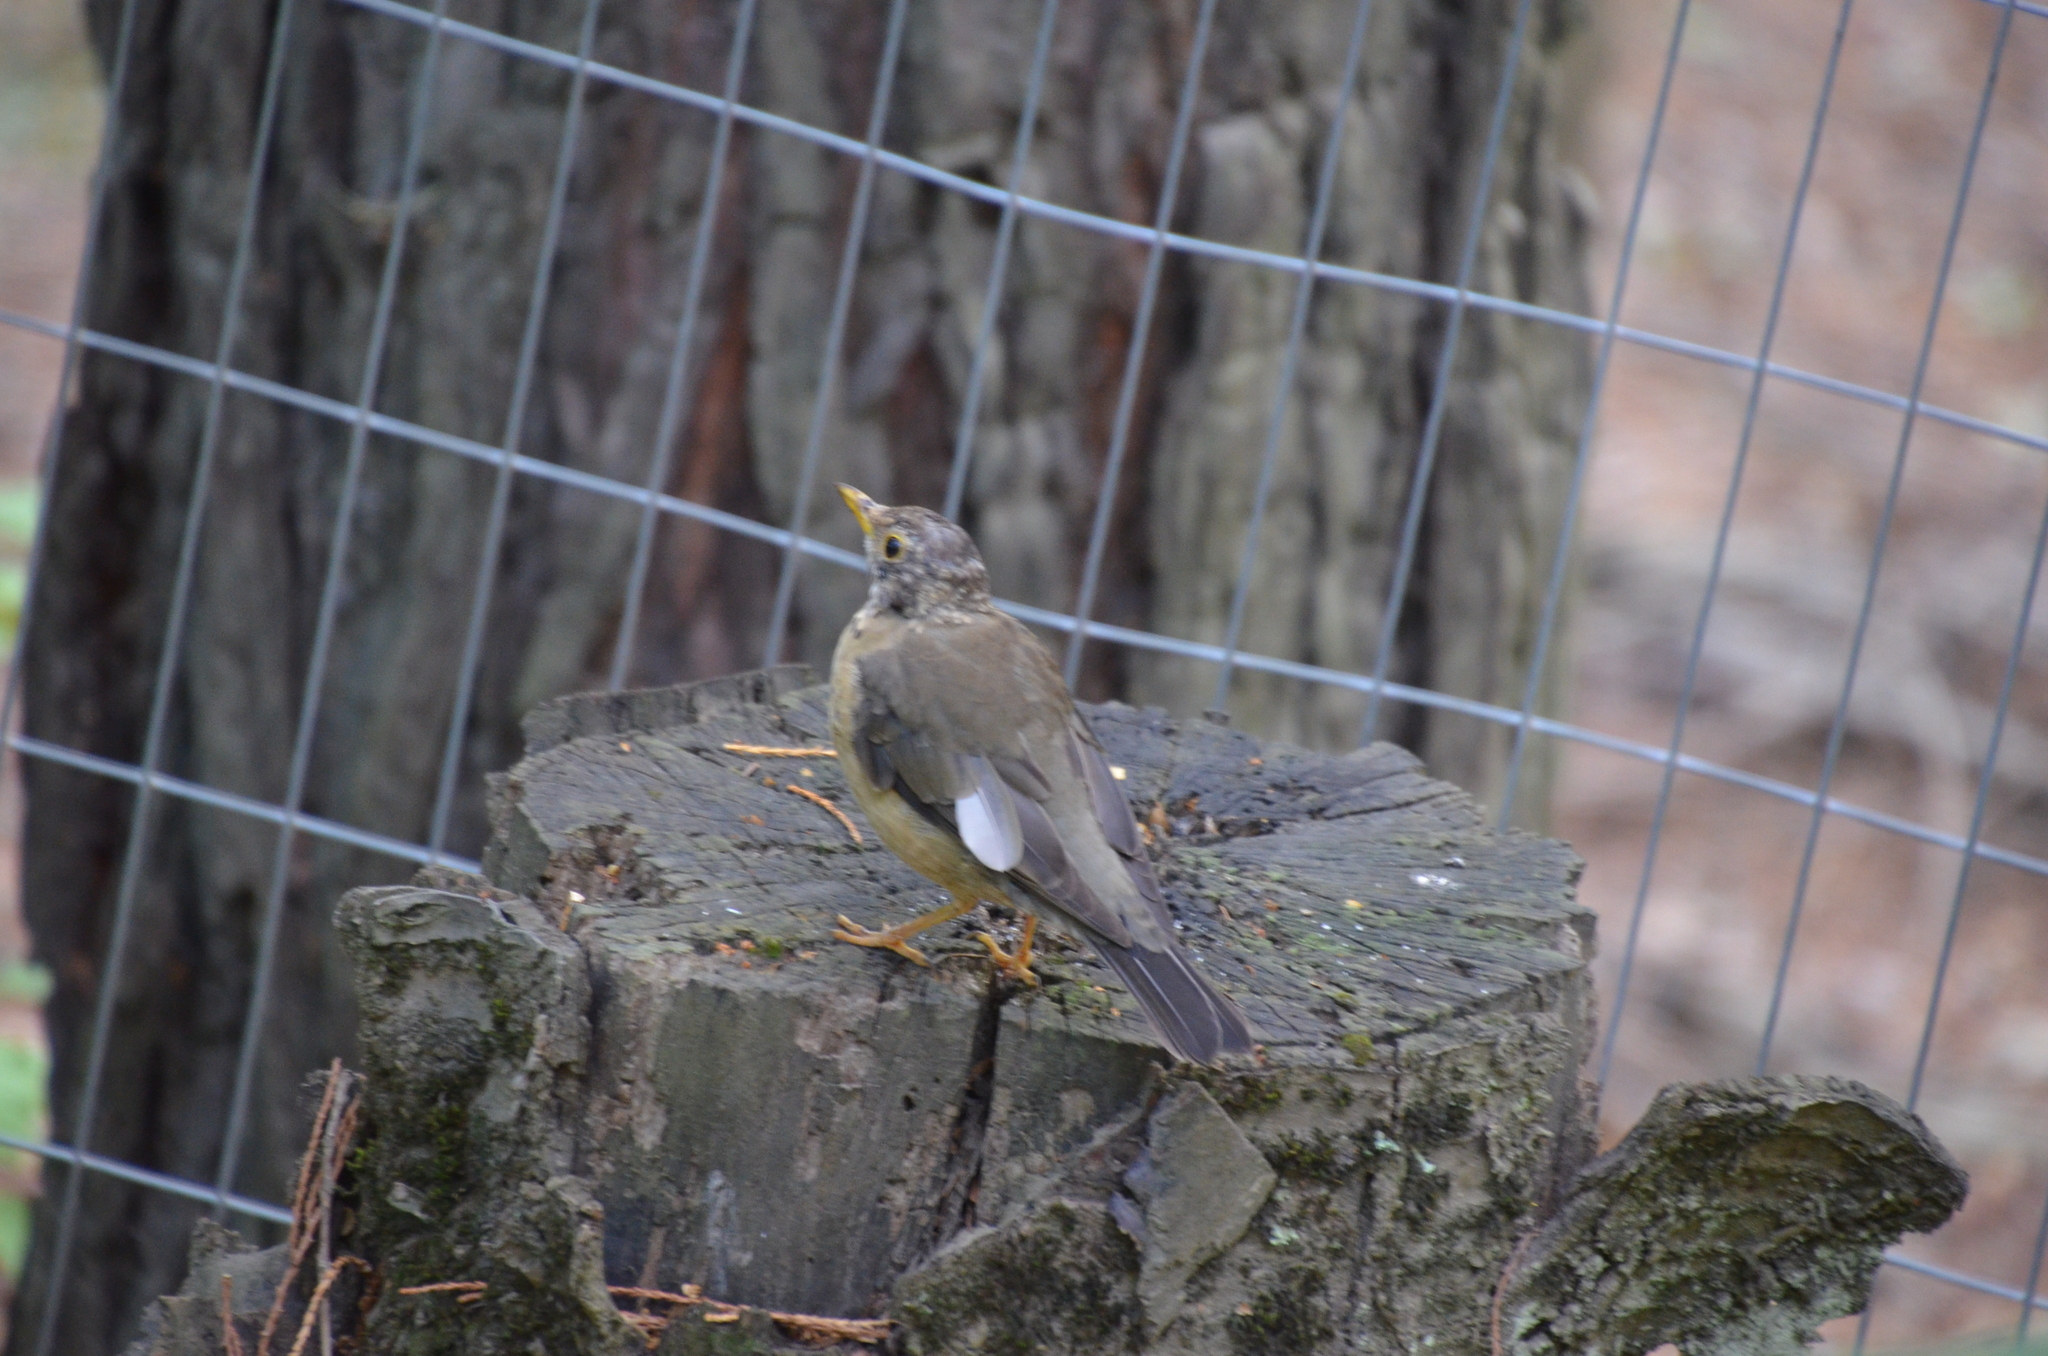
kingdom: Animalia
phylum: Chordata
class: Aves
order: Passeriformes
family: Turdidae
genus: Turdus
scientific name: Turdus falcklandii
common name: Austral thrush
